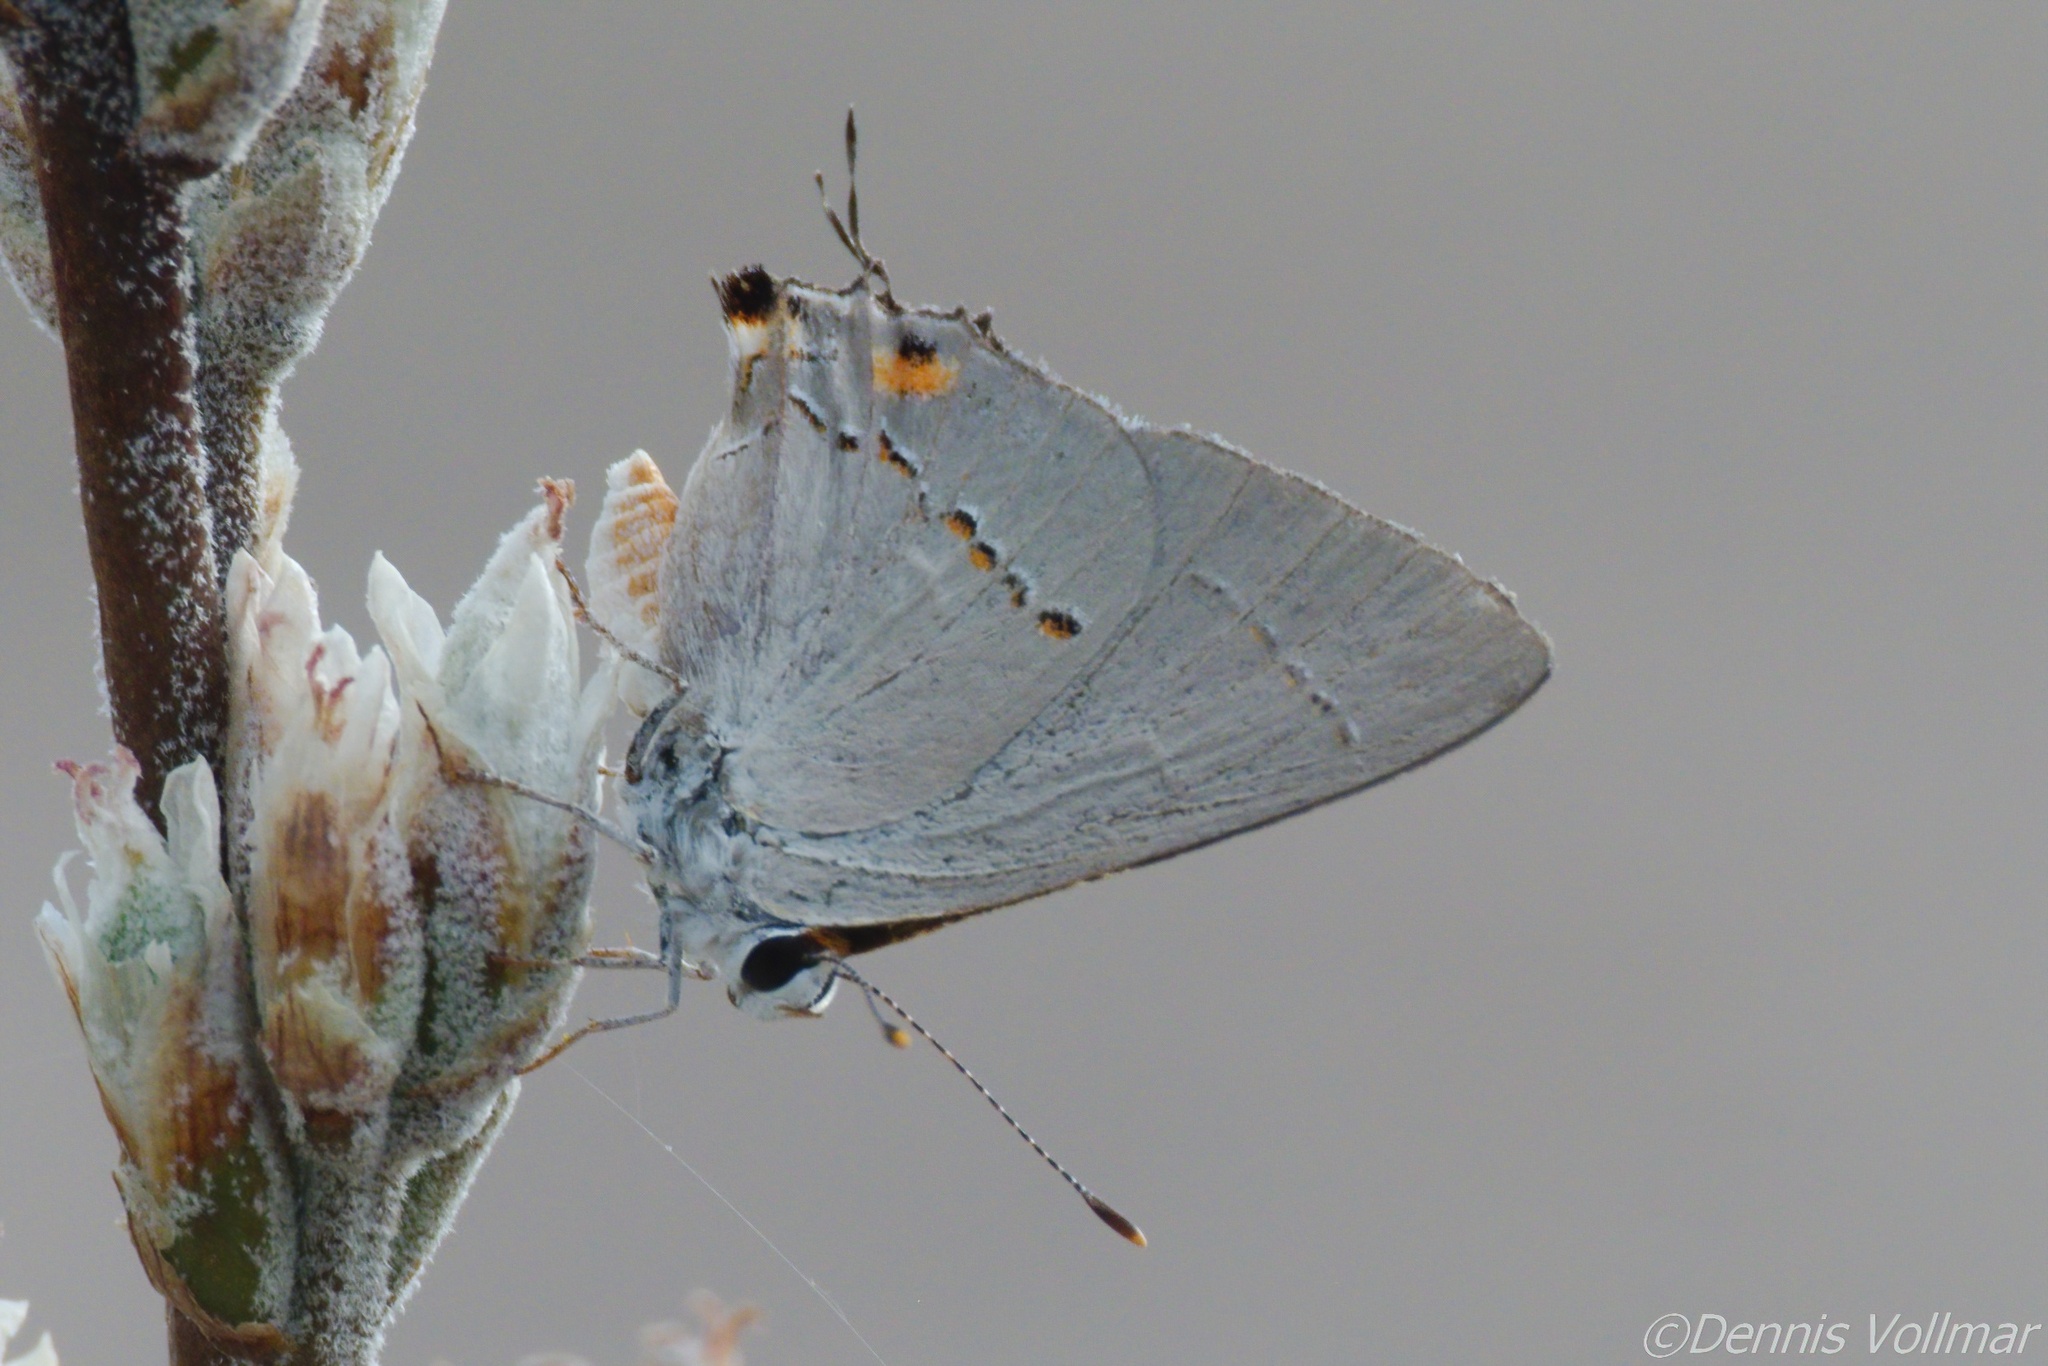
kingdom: Animalia
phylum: Arthropoda
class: Insecta
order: Lepidoptera
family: Lycaenidae
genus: Strymon
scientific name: Strymon melinus
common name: Gray hairstreak
